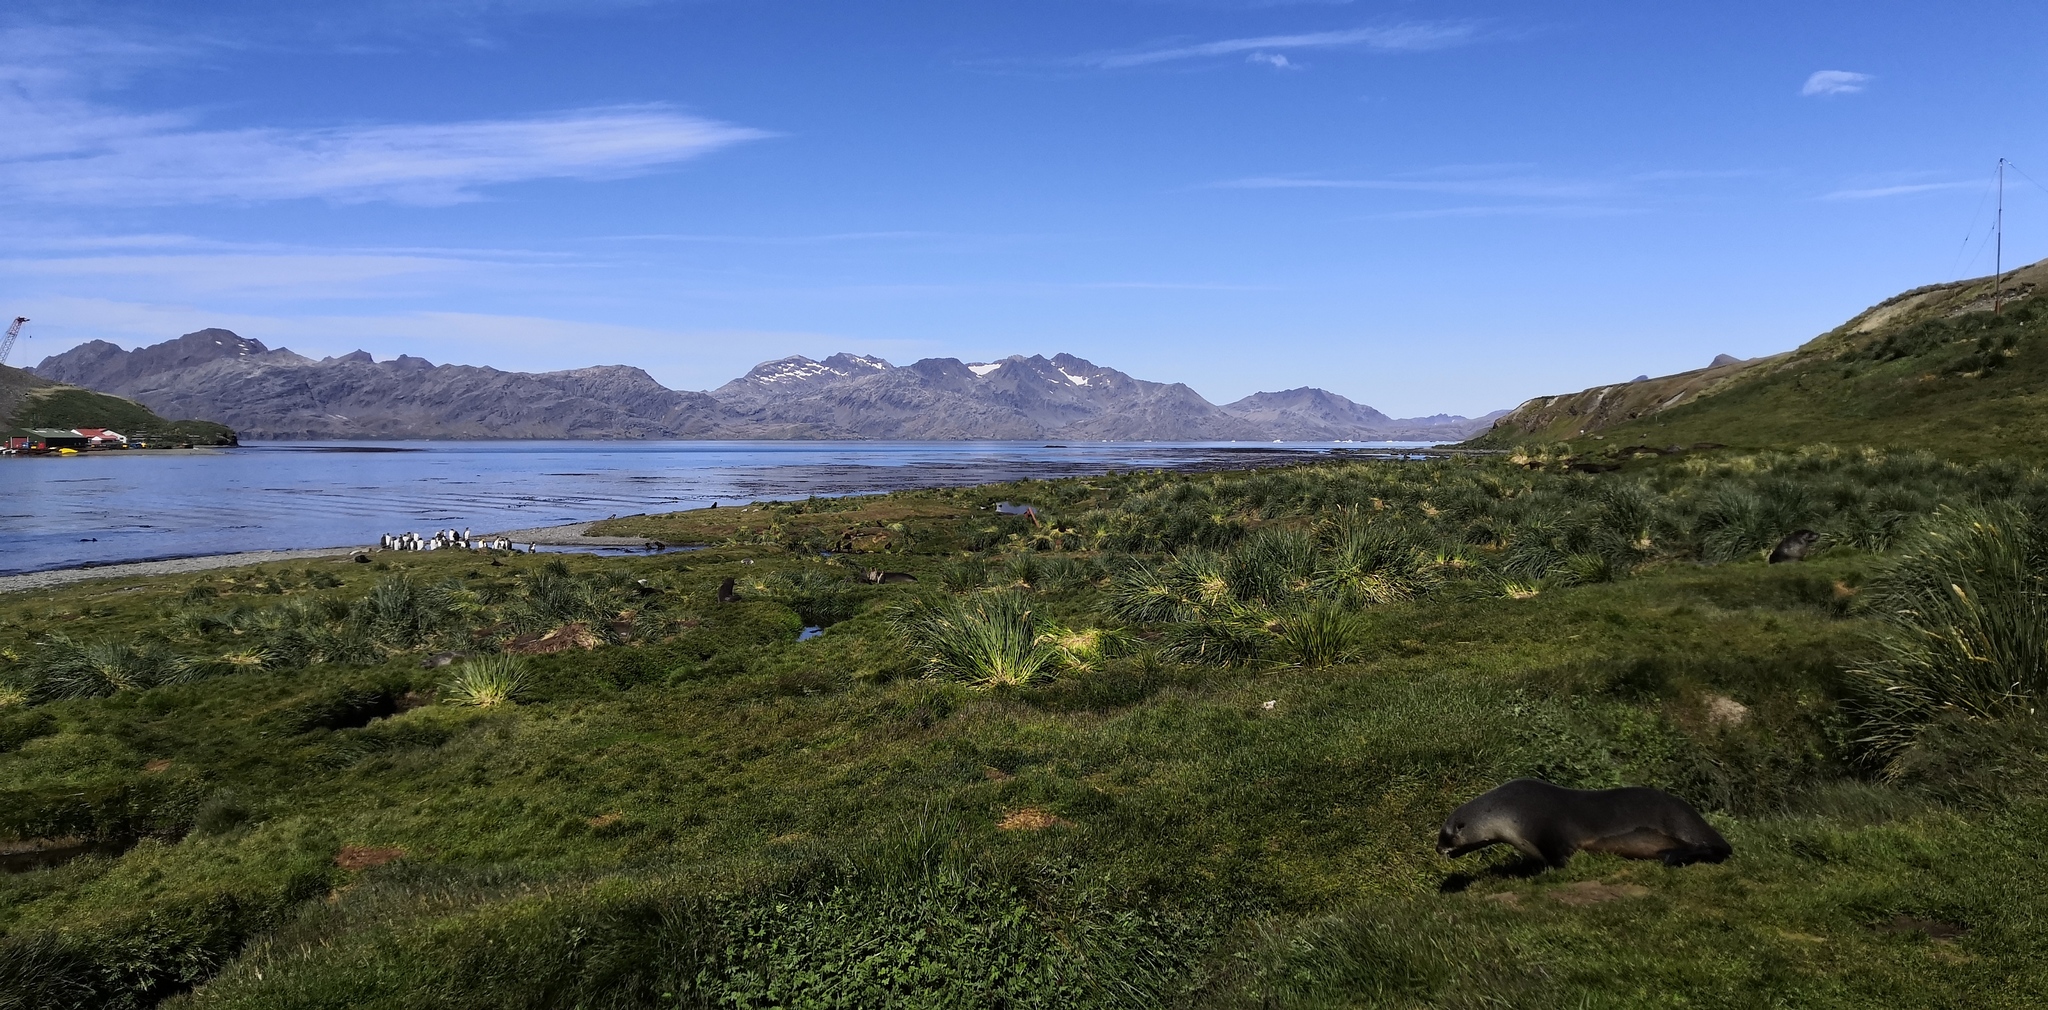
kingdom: Animalia
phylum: Chordata
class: Mammalia
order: Carnivora
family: Otariidae
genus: Arctocephalus
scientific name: Arctocephalus gazella
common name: Antarctic fur seal
